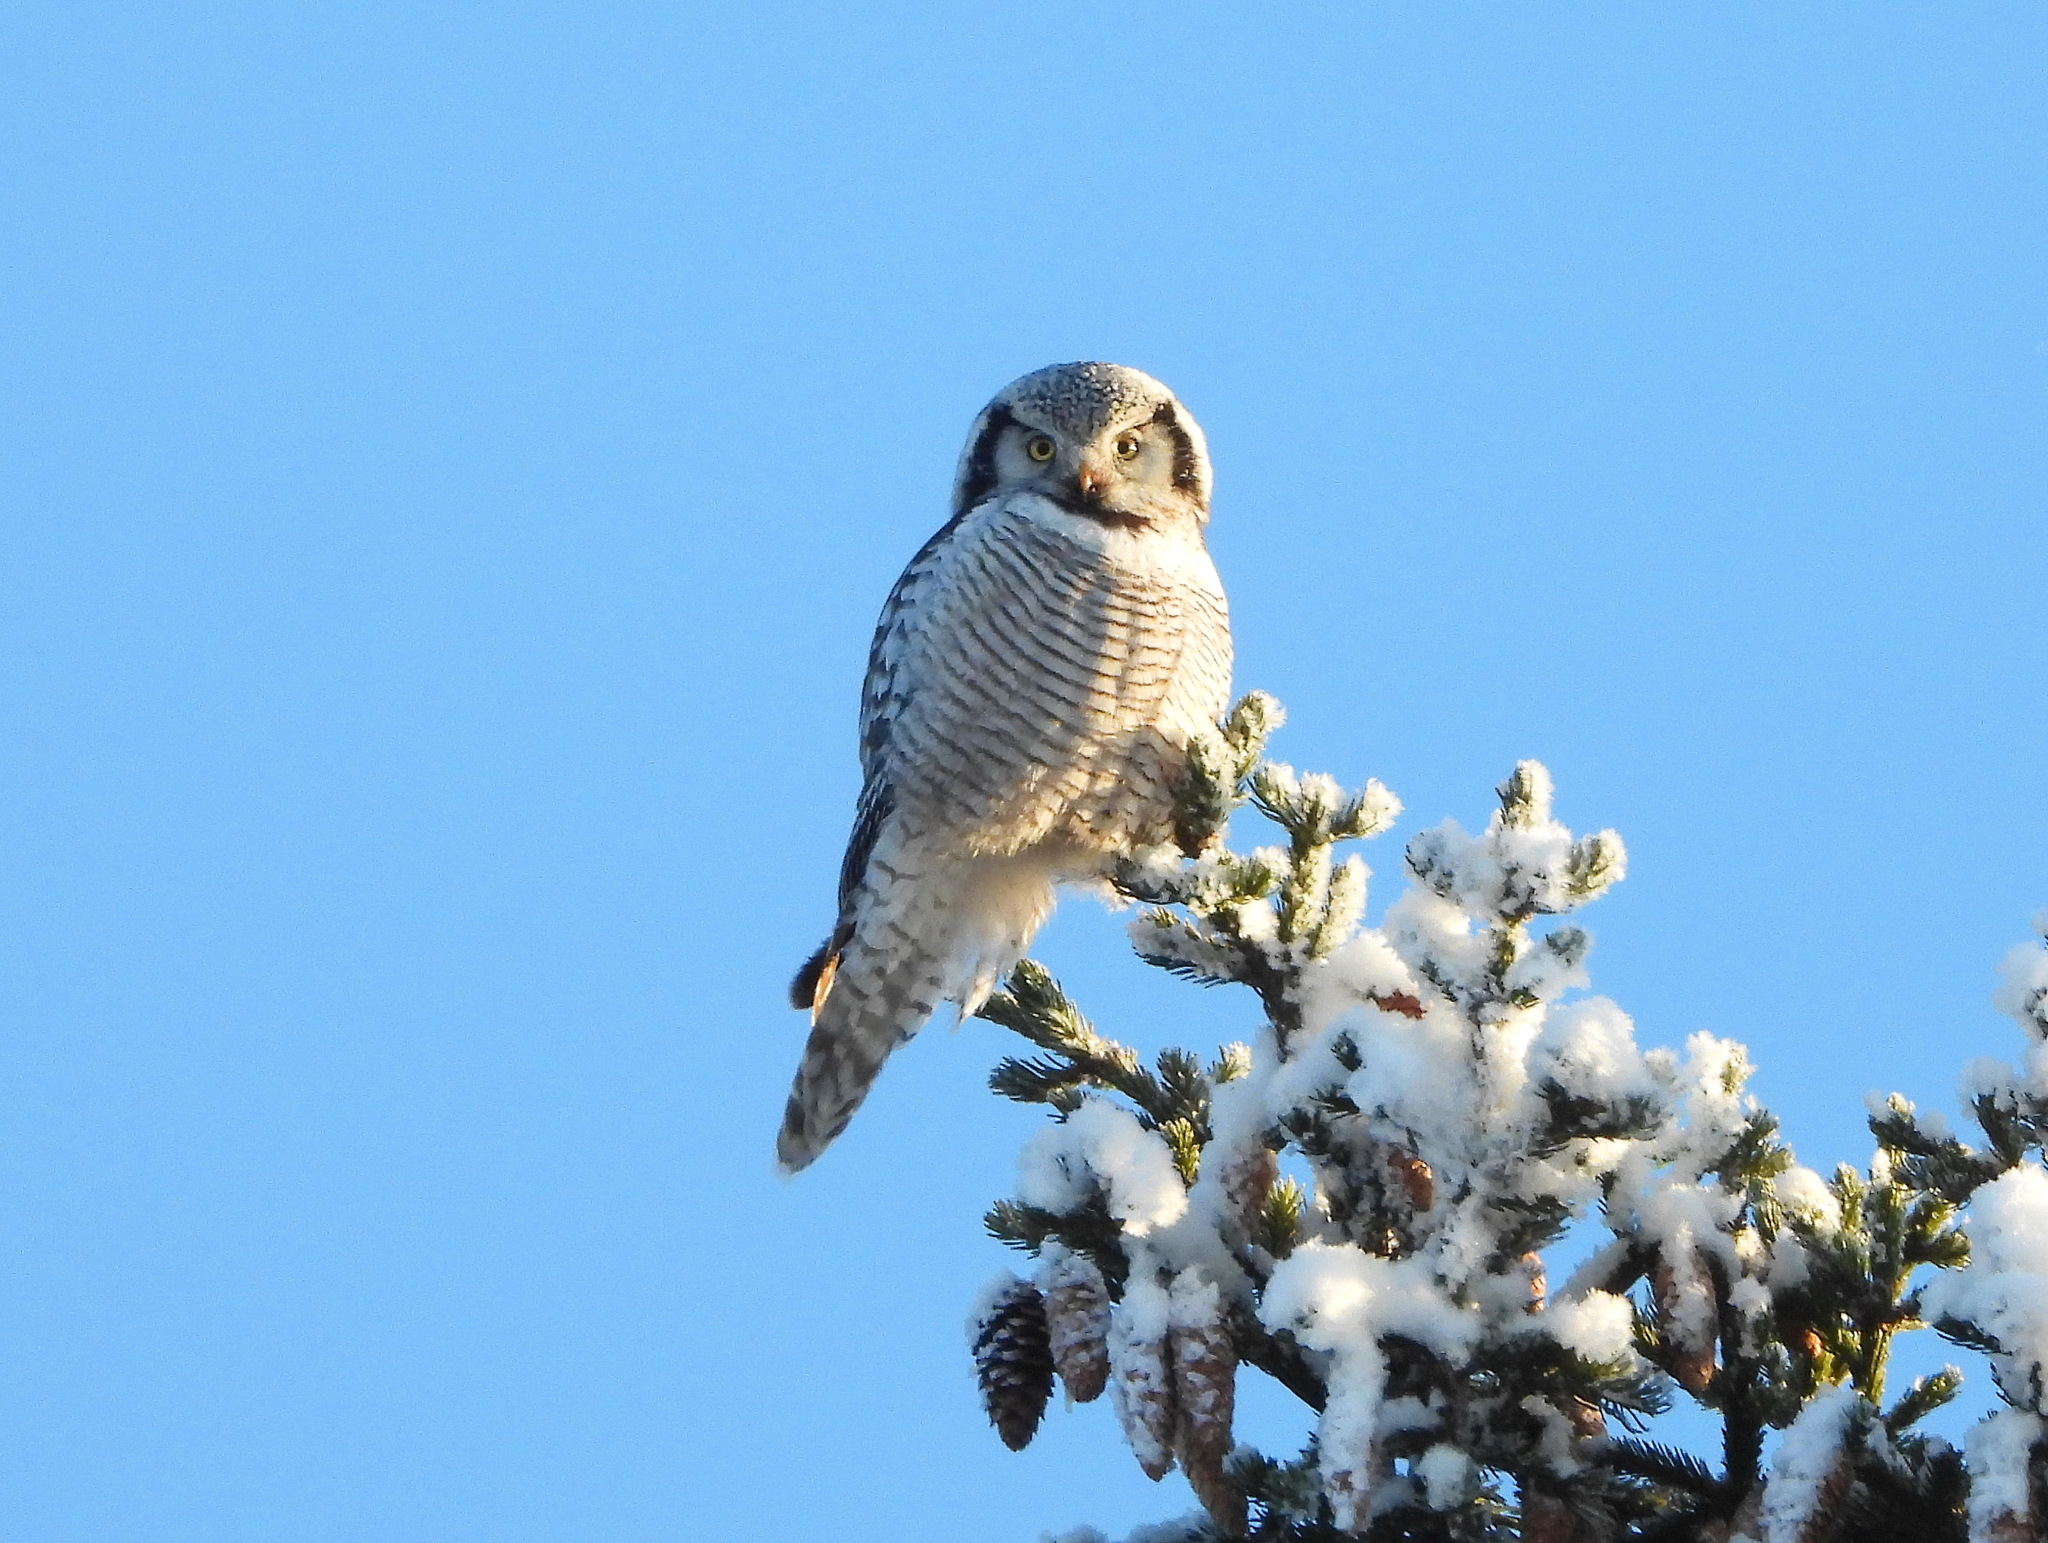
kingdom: Animalia
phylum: Chordata
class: Aves
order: Strigiformes
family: Strigidae
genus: Surnia
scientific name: Surnia ulula
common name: Northern hawk-owl
